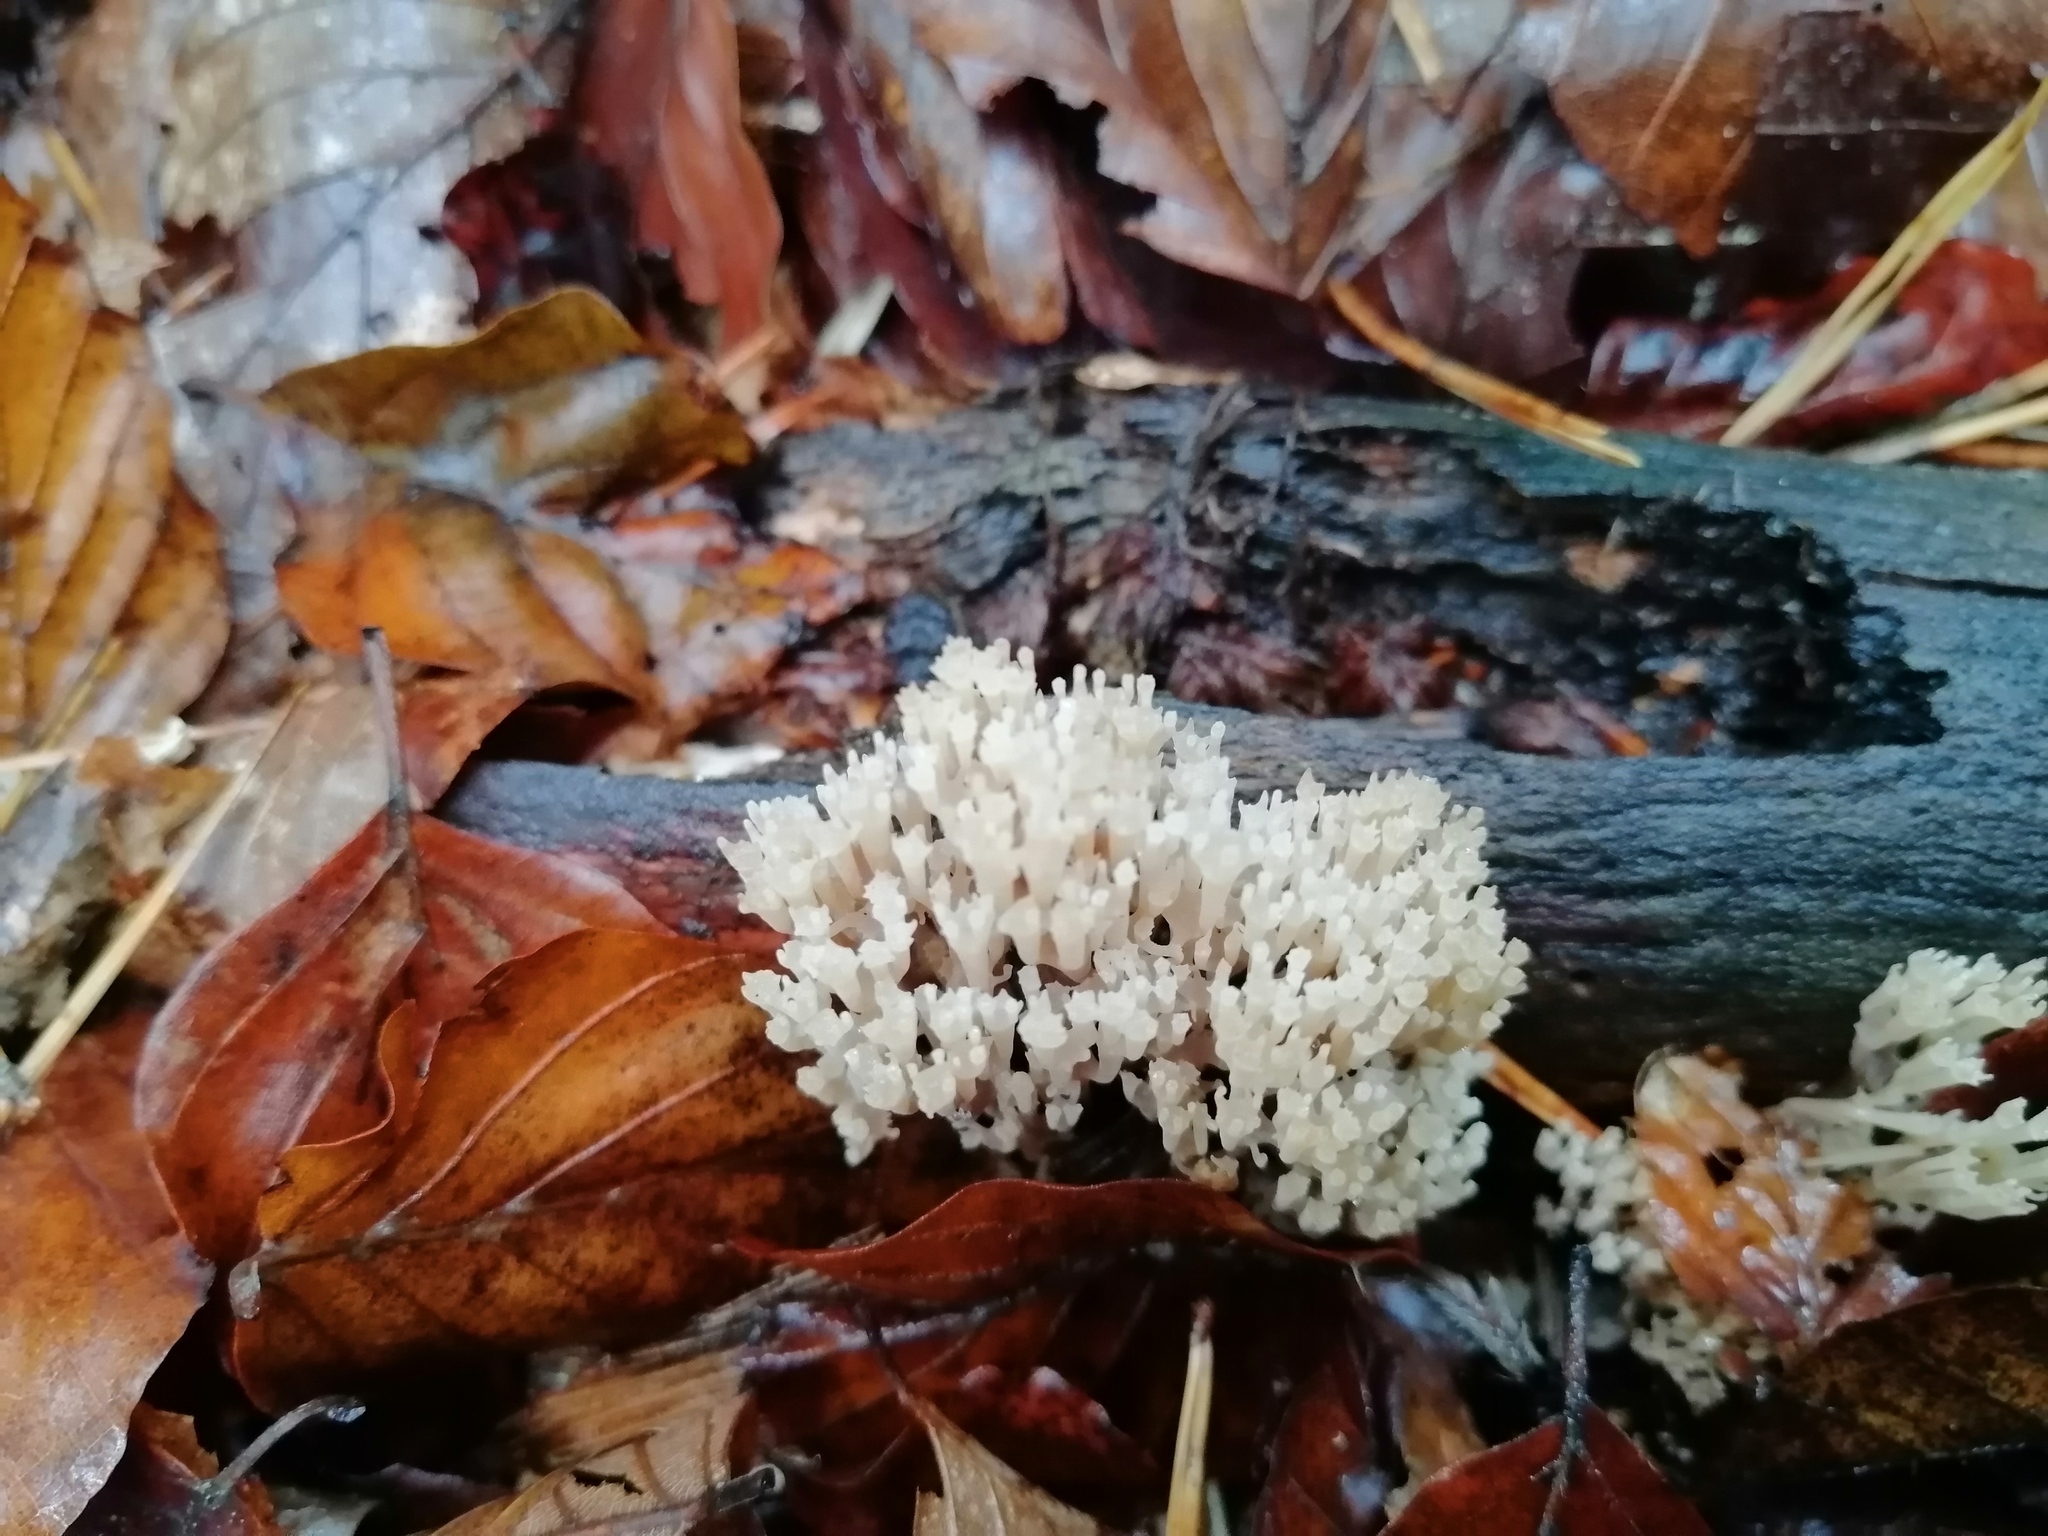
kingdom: Fungi
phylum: Basidiomycota
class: Agaricomycetes
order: Russulales
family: Auriscalpiaceae
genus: Artomyces
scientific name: Artomyces pyxidatus
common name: Crown-tipped coral fungus
